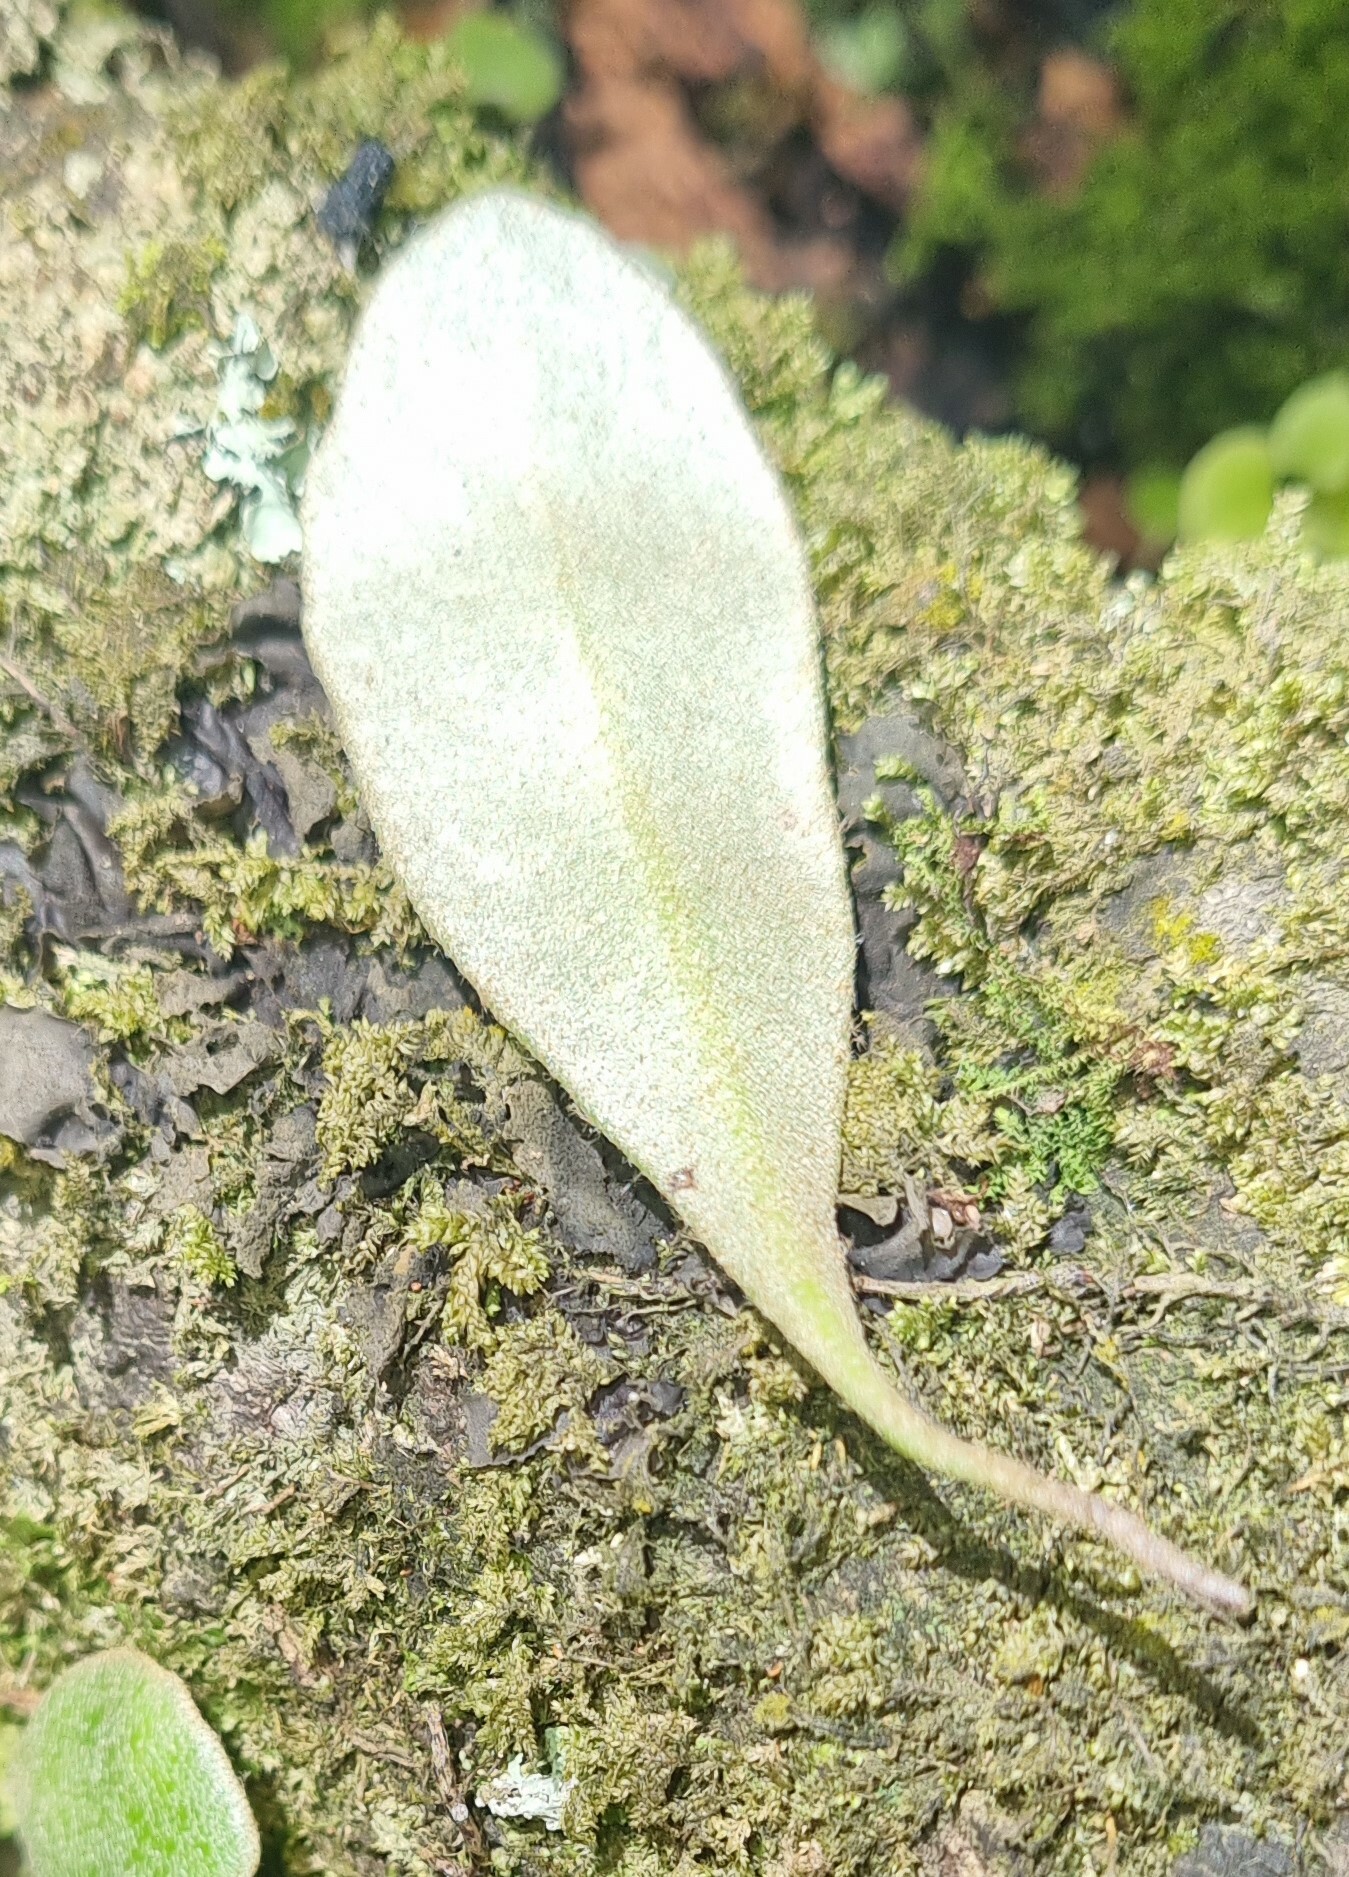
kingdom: Plantae
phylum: Tracheophyta
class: Polypodiopsida
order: Polypodiales
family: Polypodiaceae
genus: Pyrrosia
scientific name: Pyrrosia eleagnifolia
